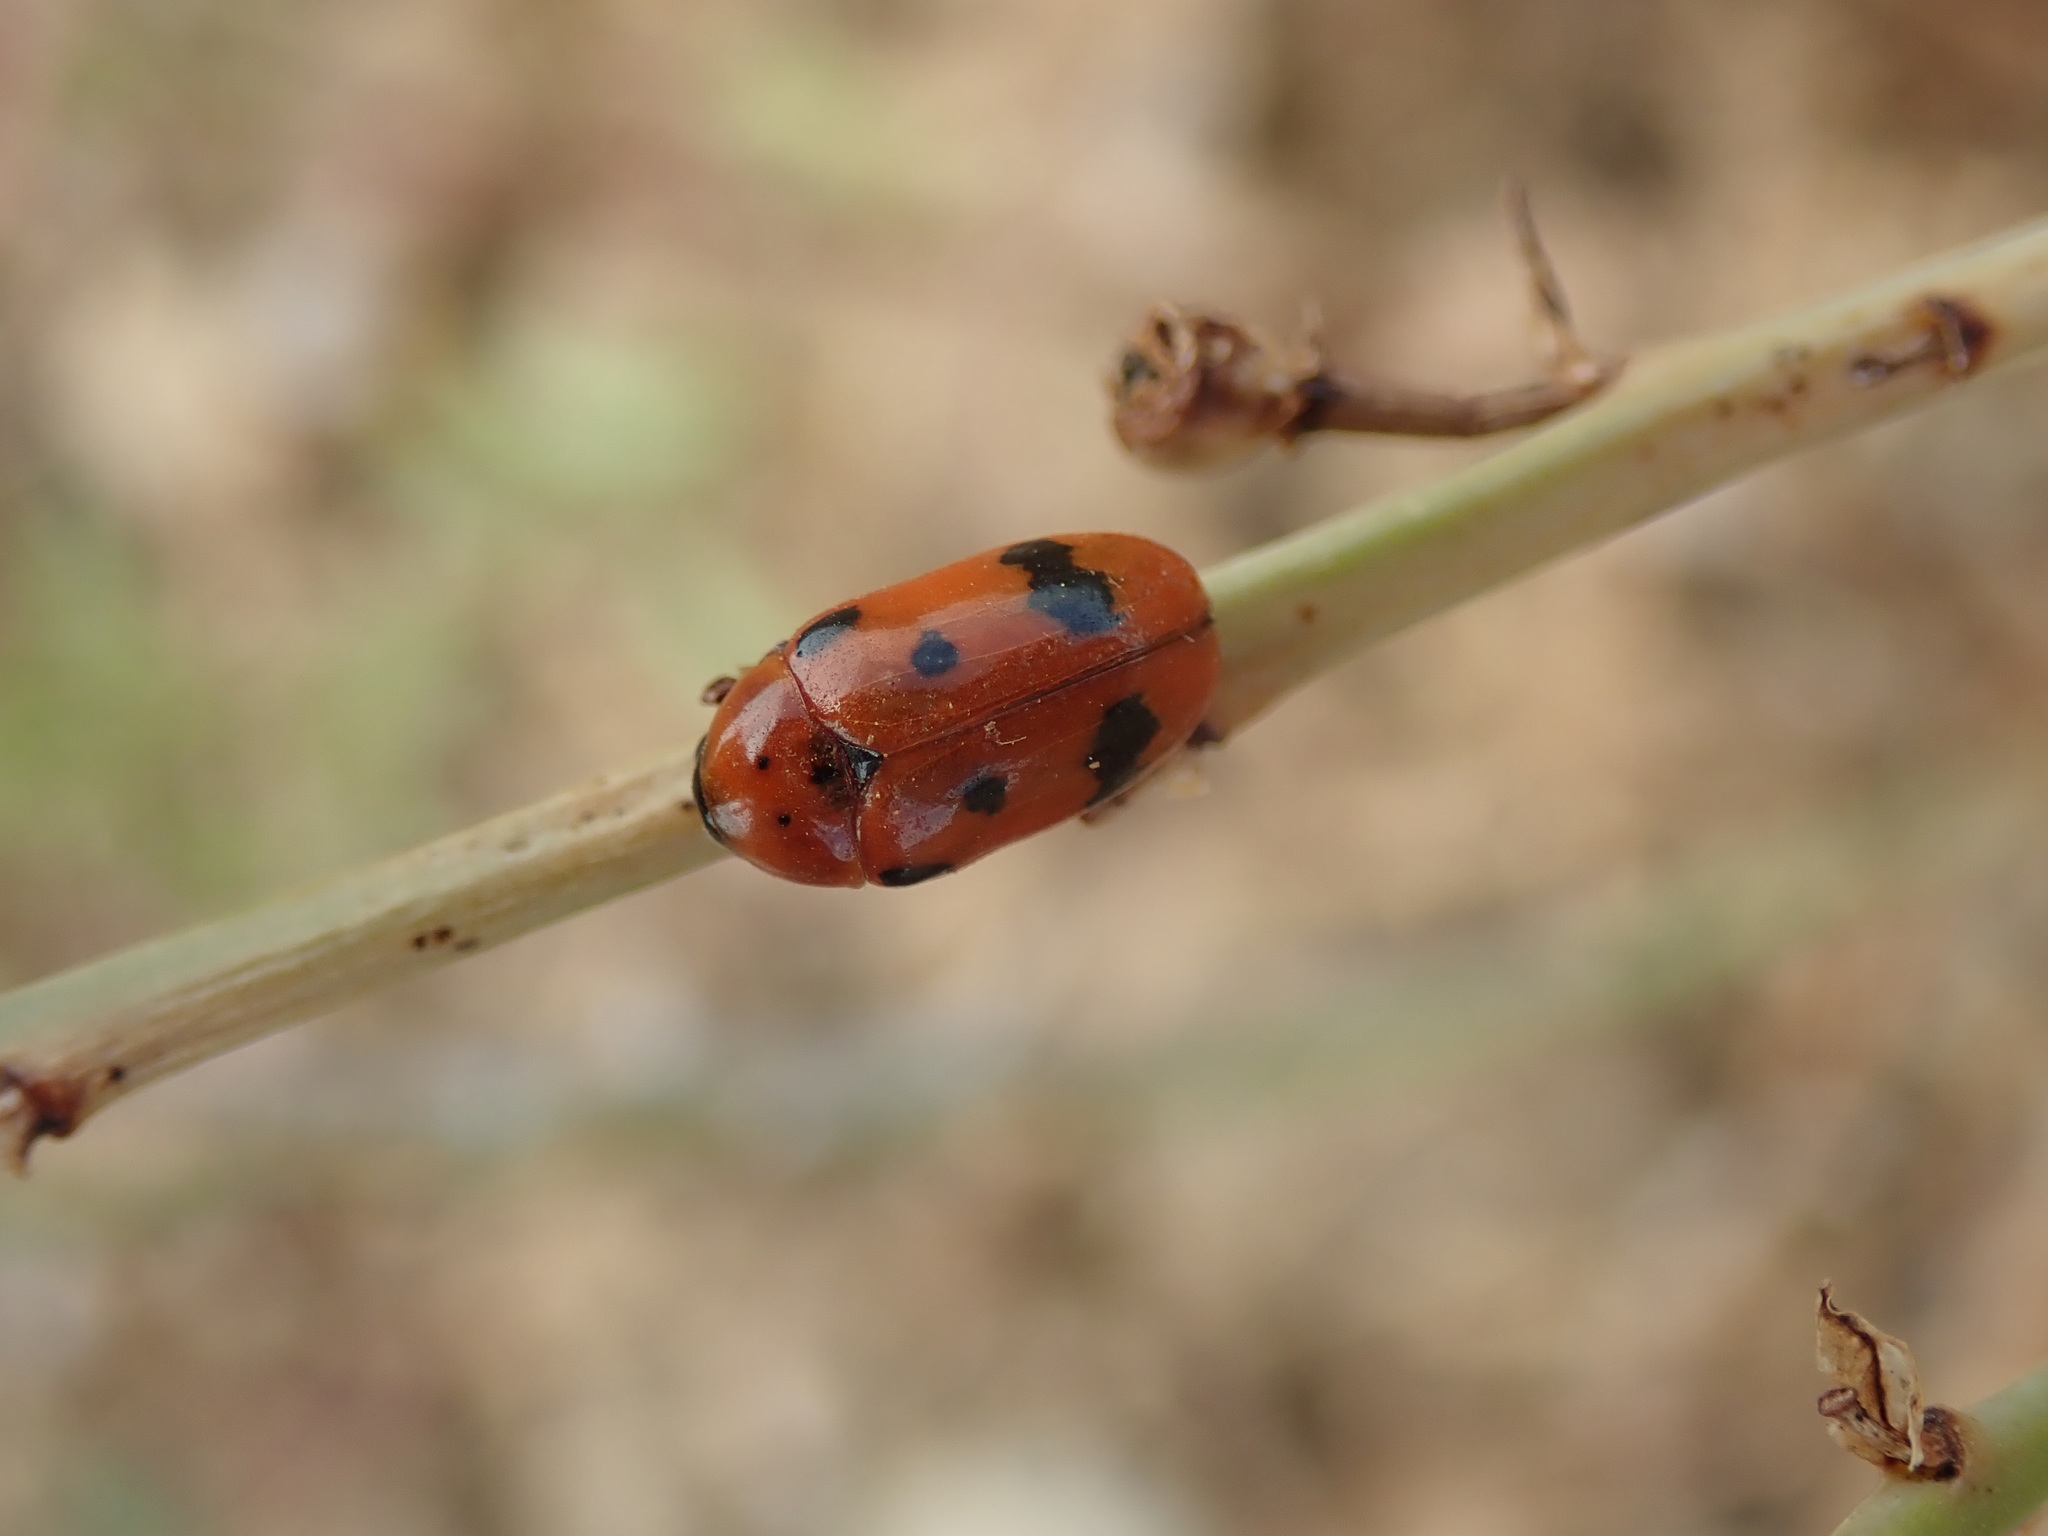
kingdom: Animalia
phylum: Arthropoda
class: Insecta
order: Coleoptera
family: Chrysomelidae
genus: Clytra
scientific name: Clytra atraphaxidis
